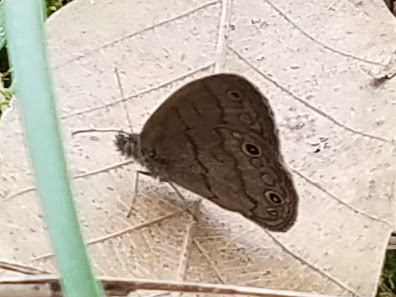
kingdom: Animalia
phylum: Arthropoda
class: Insecta
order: Lepidoptera
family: Nymphalidae
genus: Hermeuptychia
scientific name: Hermeuptychia hermes
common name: Hermes satyr
